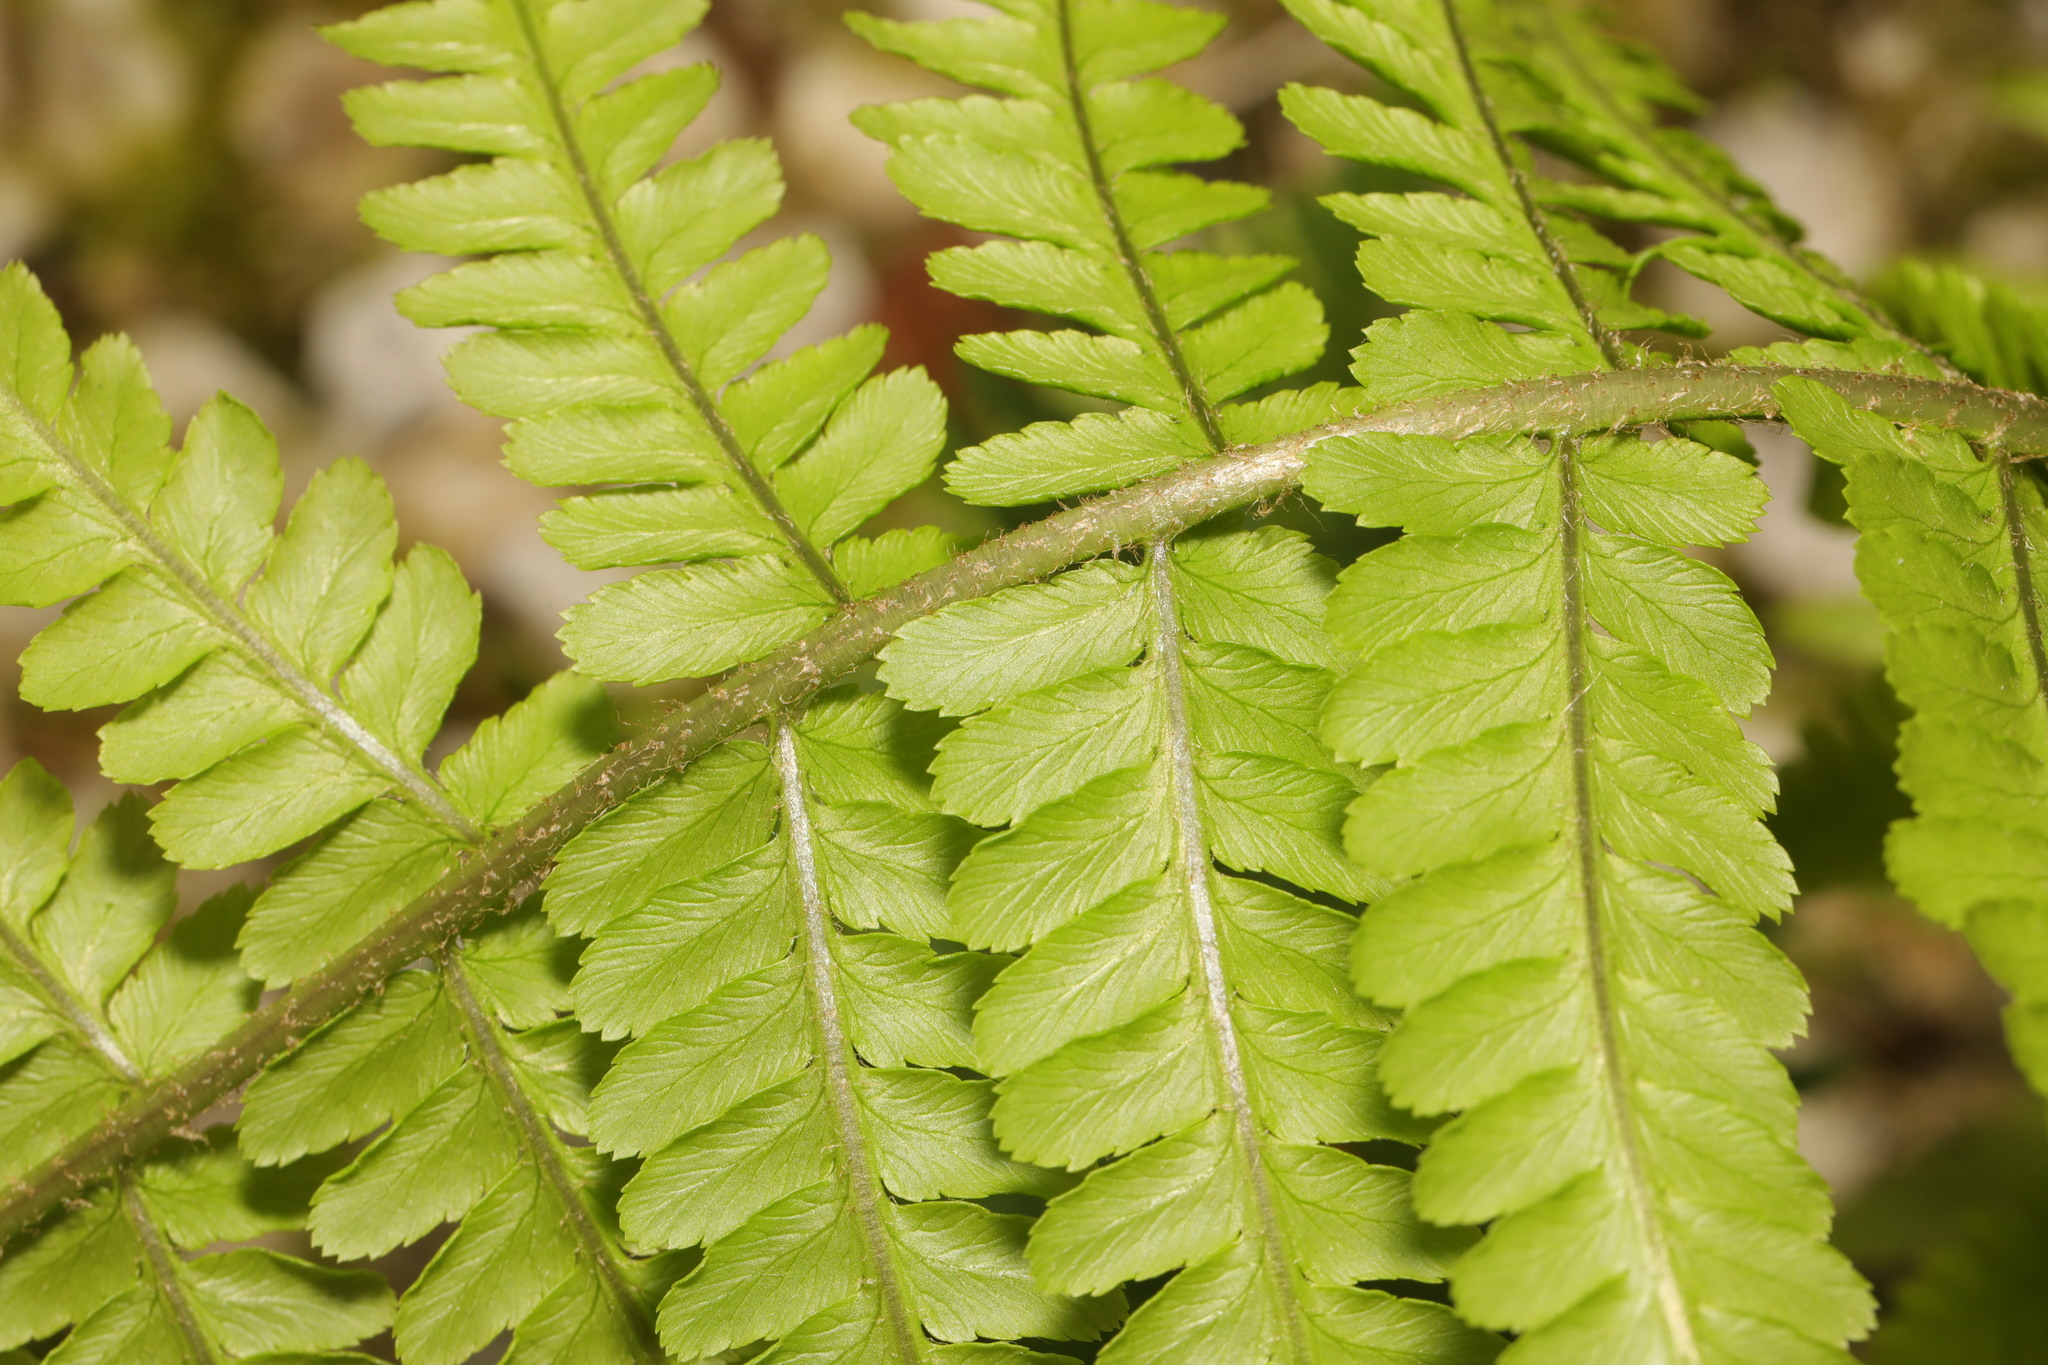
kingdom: Plantae
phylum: Tracheophyta
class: Polypodiopsida
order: Polypodiales
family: Dryopteridaceae
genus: Dryopteris
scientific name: Dryopteris filix-mas
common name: Male fern
